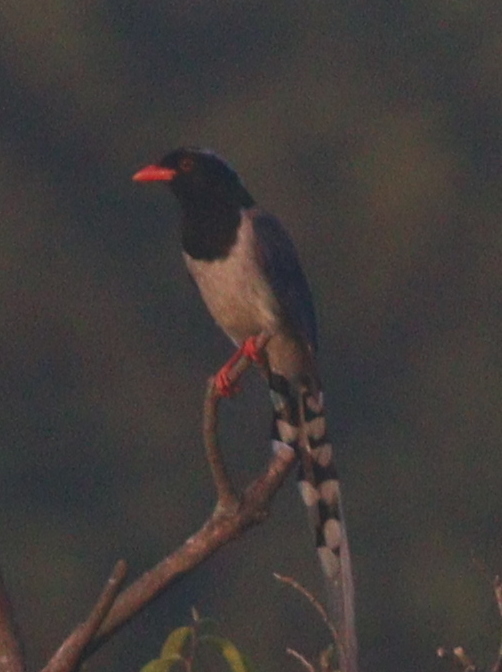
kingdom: Animalia
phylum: Chordata
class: Aves
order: Passeriformes
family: Corvidae
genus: Urocissa
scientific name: Urocissa erythroryncha
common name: Red-billed blue magpie
